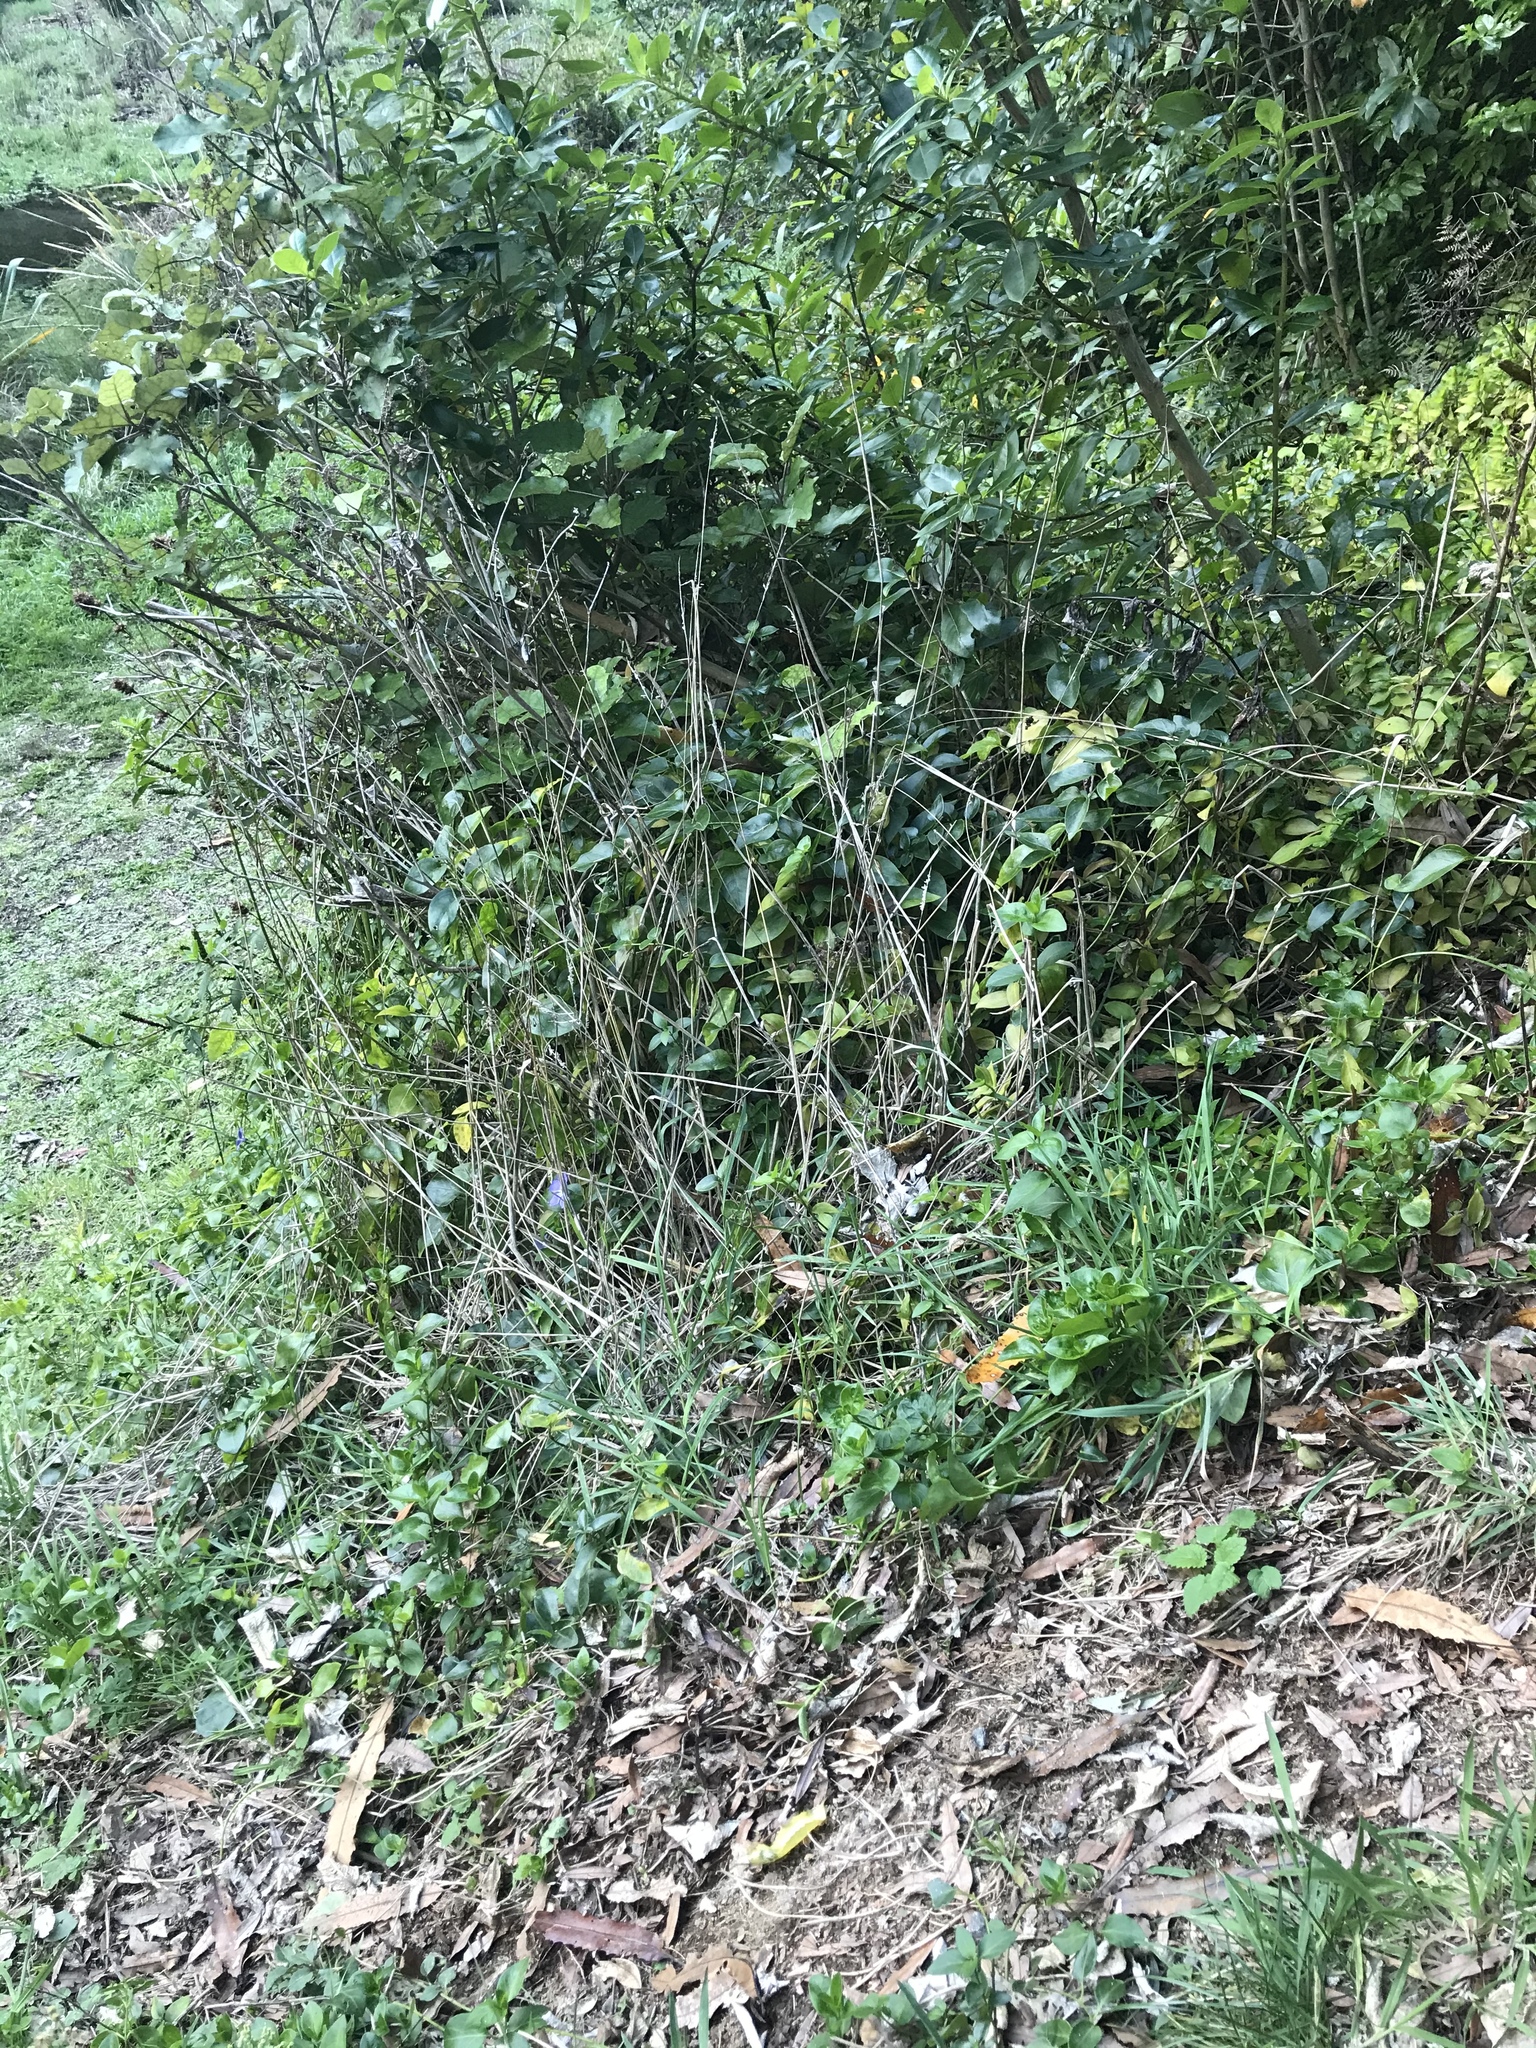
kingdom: Plantae
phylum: Tracheophyta
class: Magnoliopsida
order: Gentianales
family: Apocynaceae
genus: Vinca
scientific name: Vinca major
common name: Greater periwinkle
